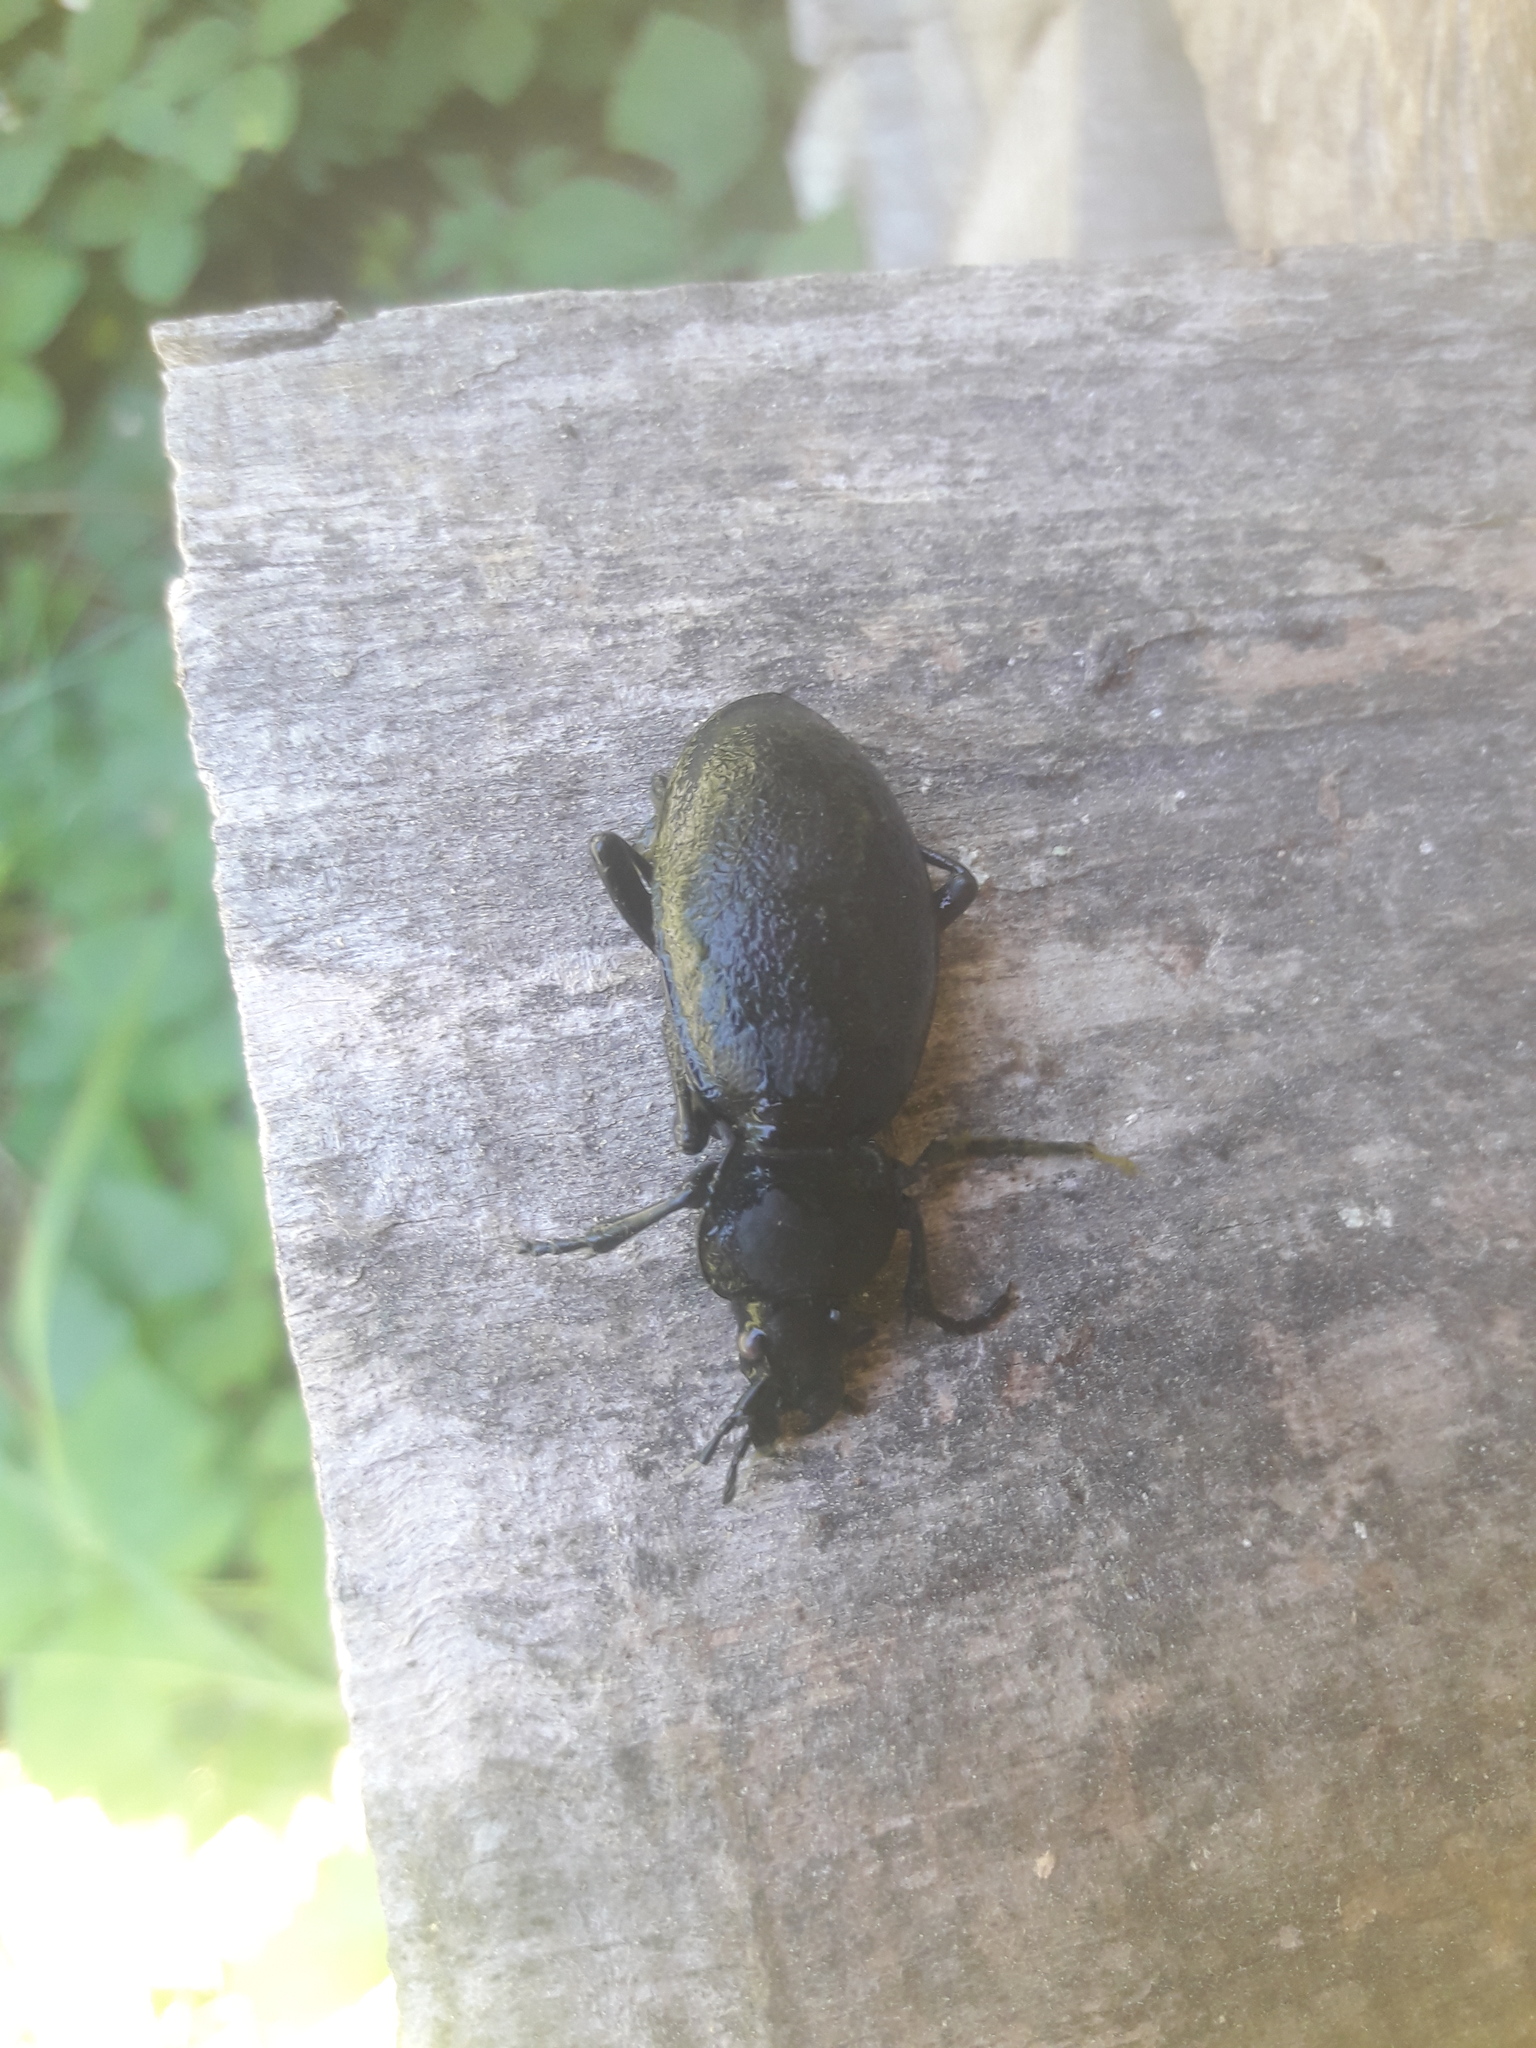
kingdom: Animalia
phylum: Arthropoda
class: Insecta
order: Coleoptera
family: Carabidae
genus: Carabus
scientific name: Carabus coriaceus
